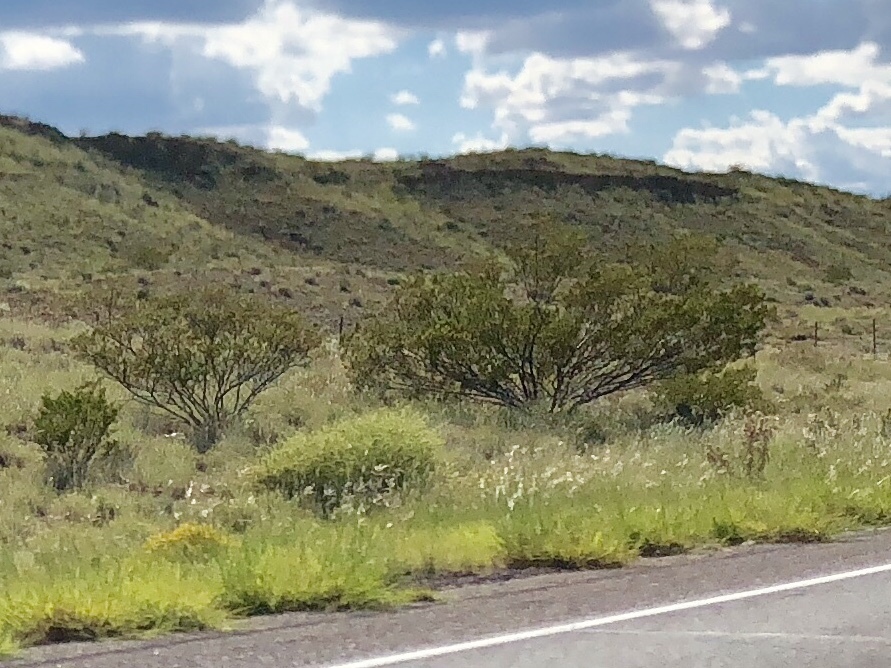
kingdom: Plantae
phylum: Tracheophyta
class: Magnoliopsida
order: Zygophyllales
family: Zygophyllaceae
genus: Larrea
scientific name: Larrea tridentata
